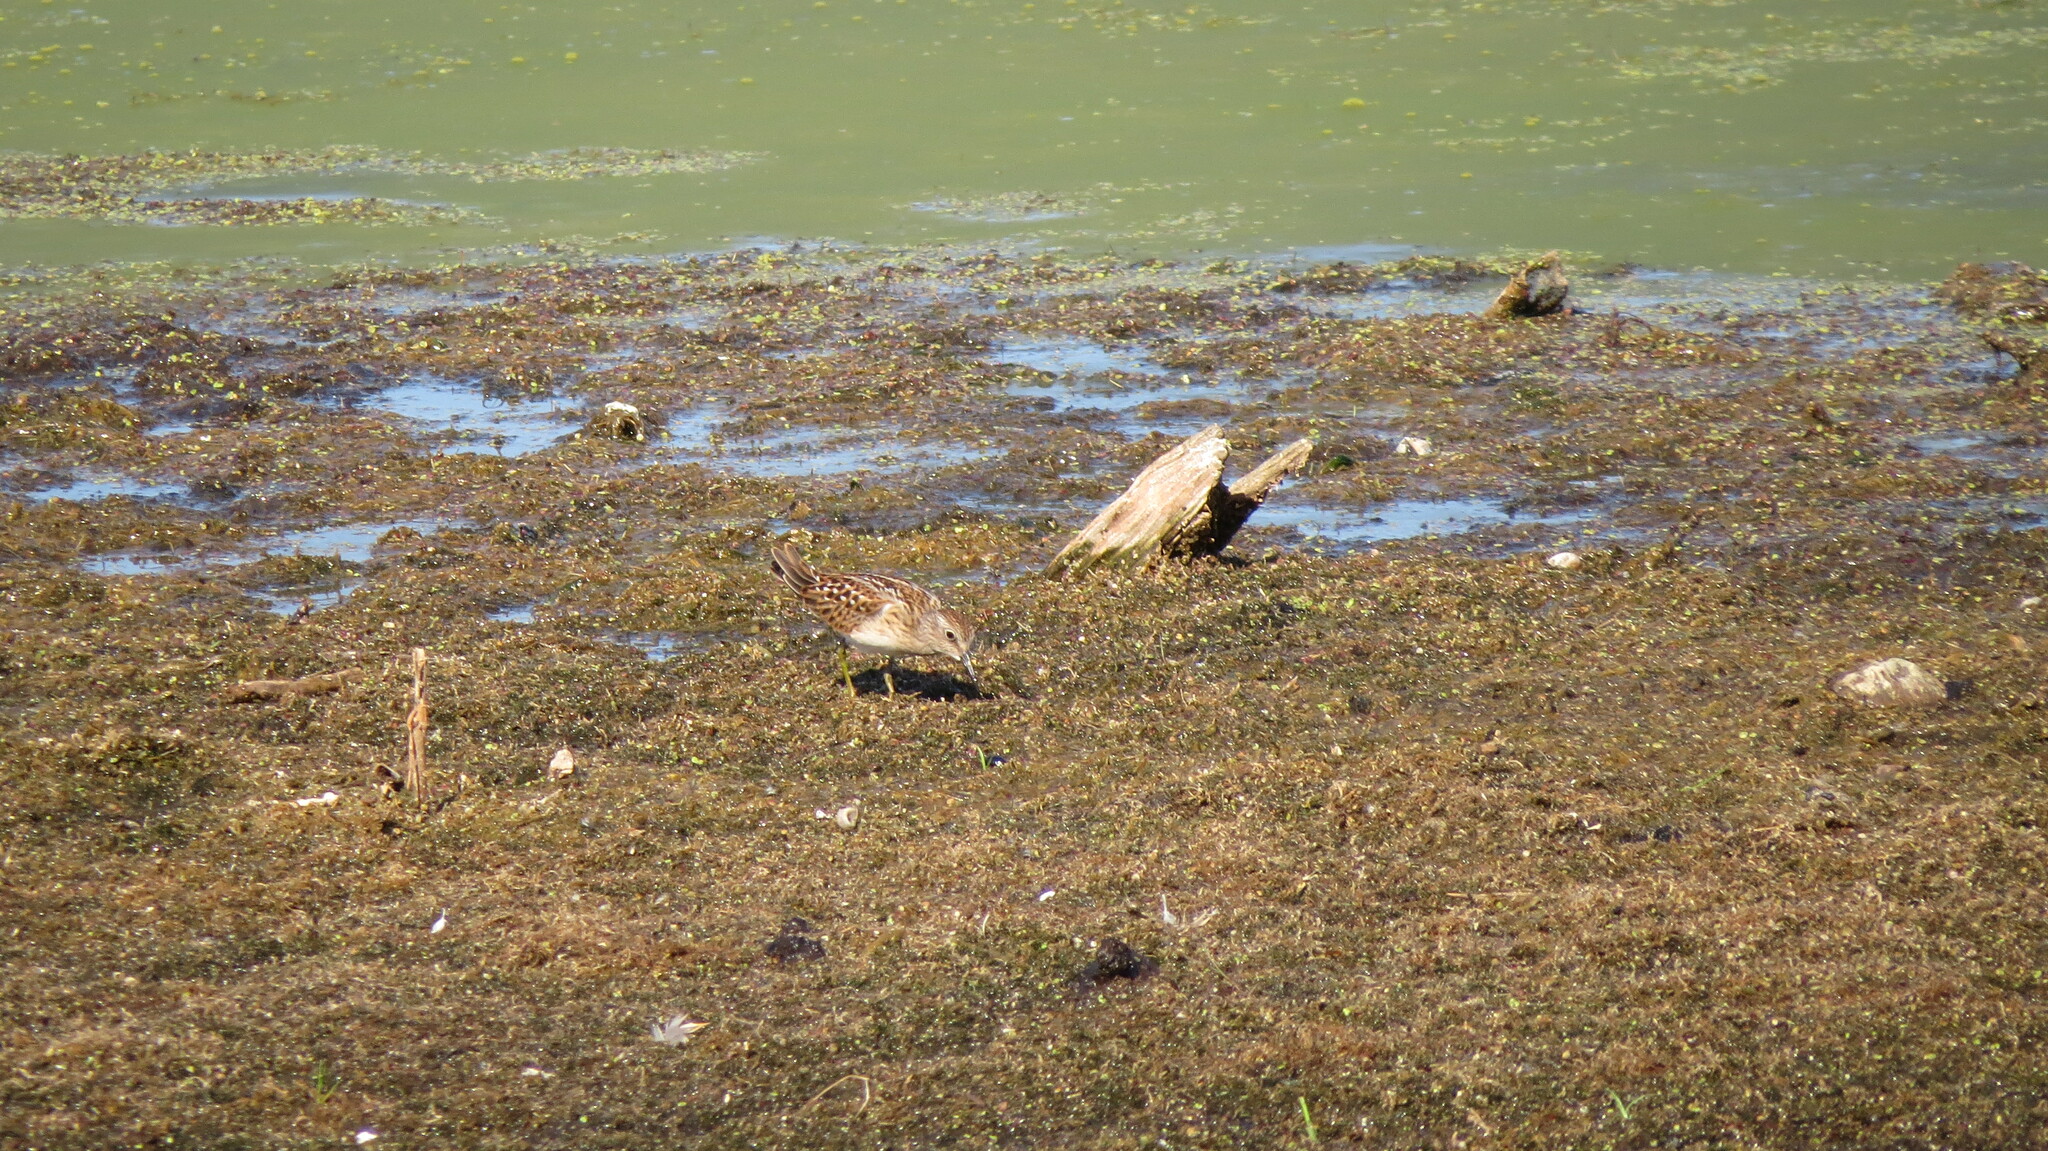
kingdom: Animalia
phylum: Chordata
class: Aves
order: Charadriiformes
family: Scolopacidae
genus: Calidris
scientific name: Calidris minutilla
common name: Least sandpiper
